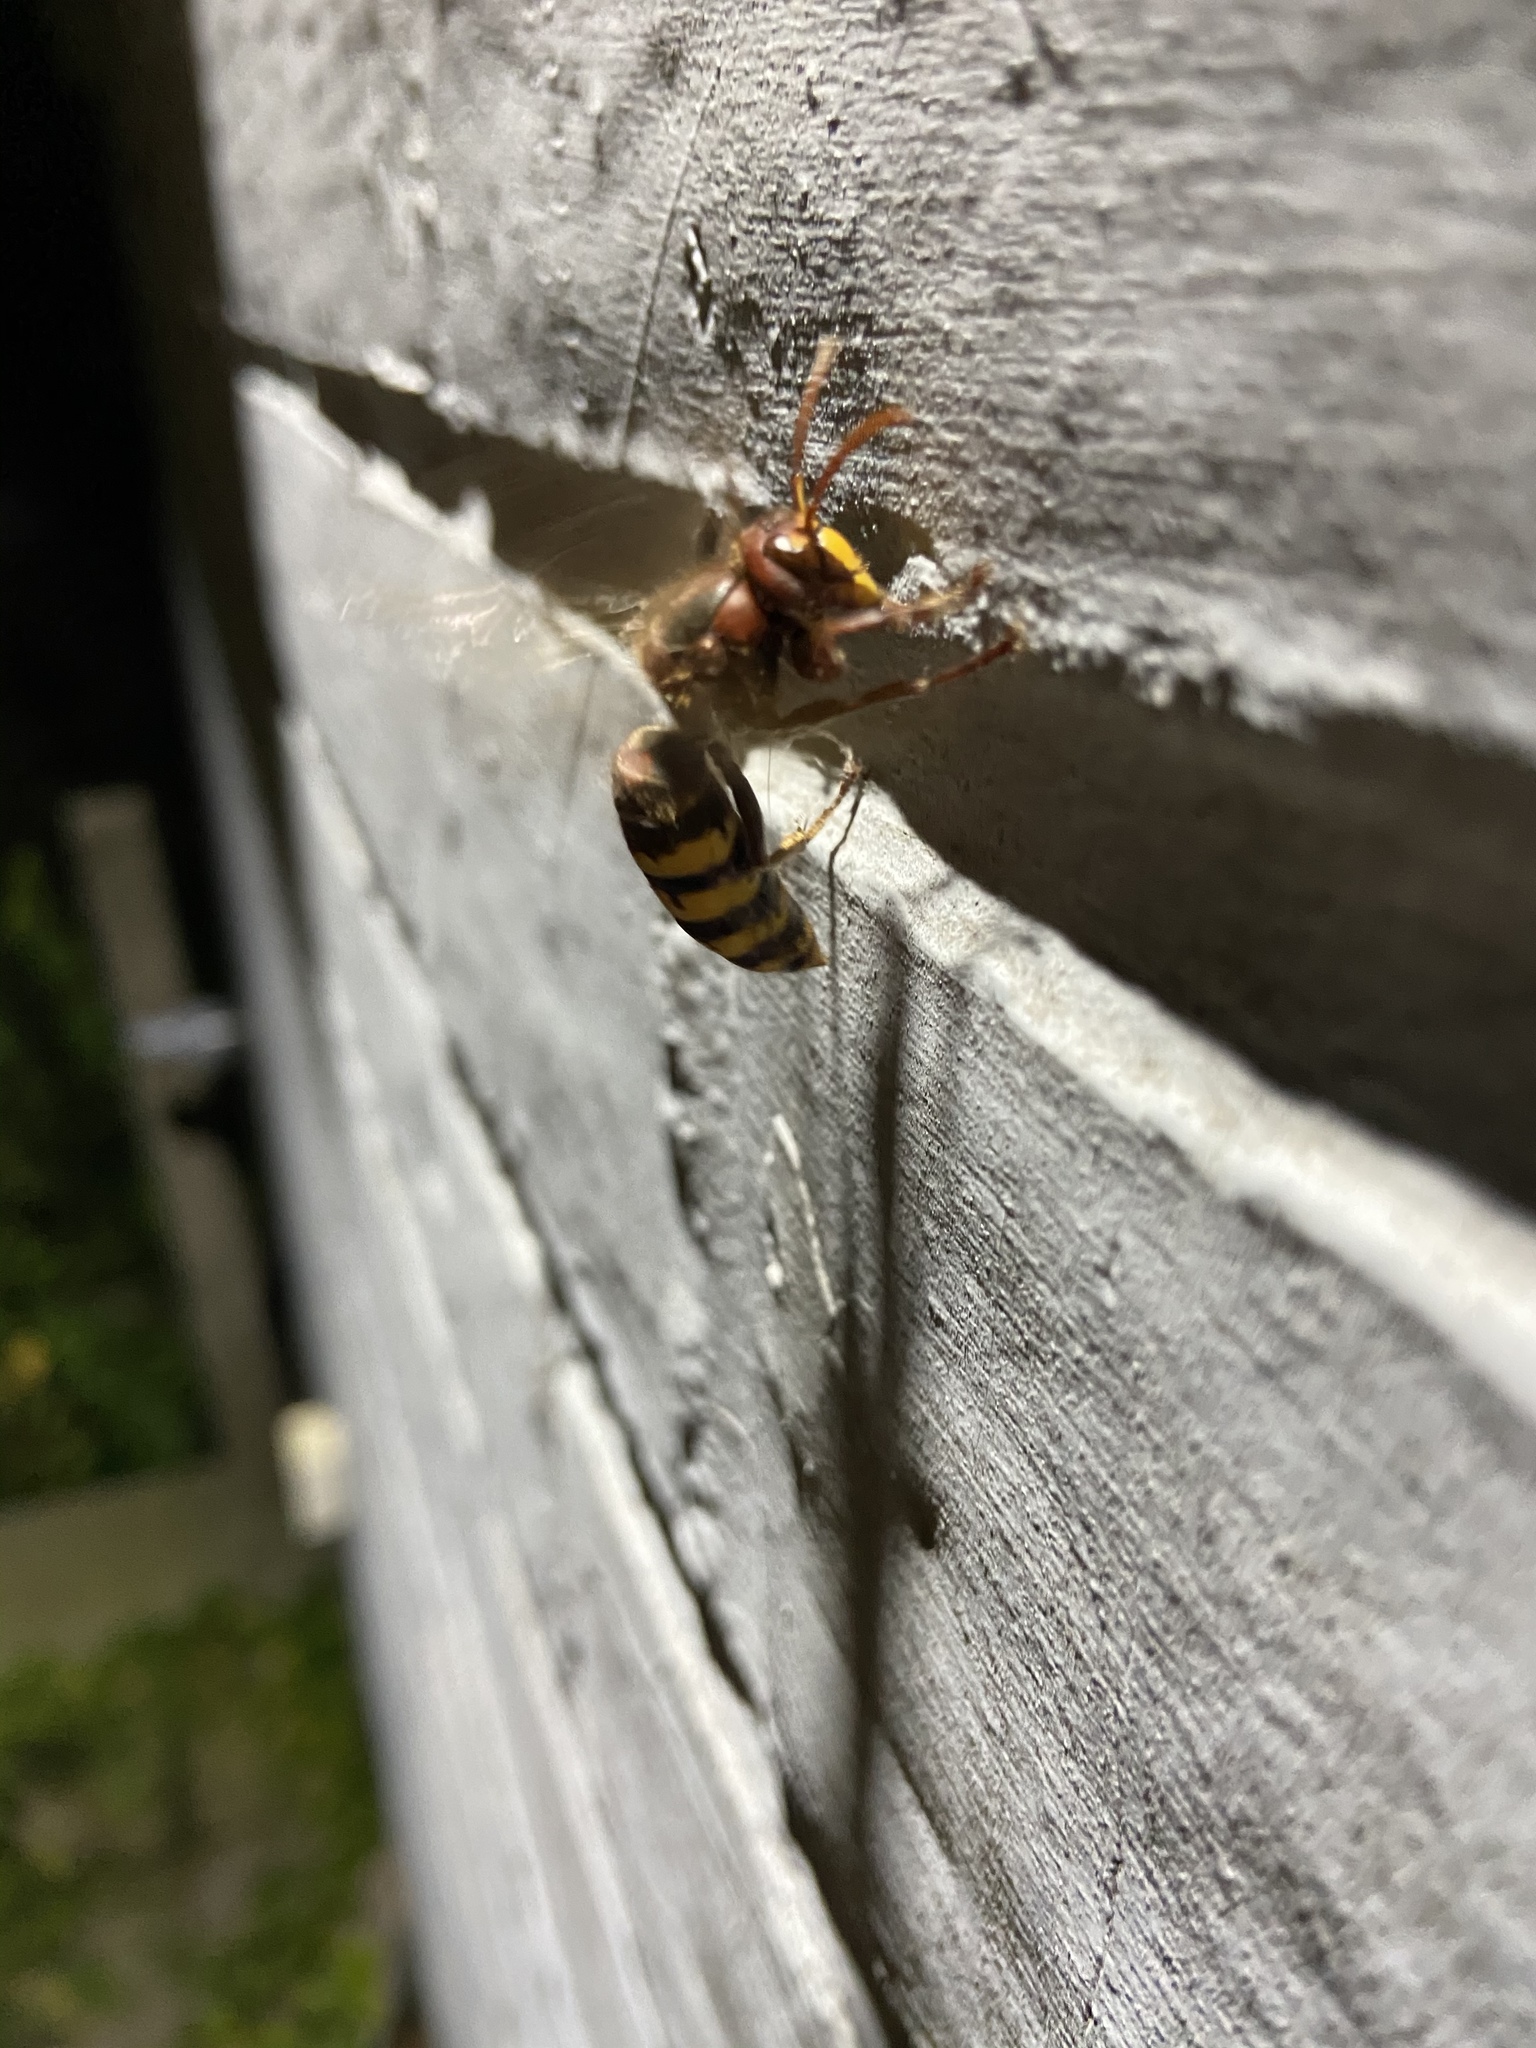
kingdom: Animalia
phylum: Arthropoda
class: Insecta
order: Hymenoptera
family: Vespidae
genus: Vespa
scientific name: Vespa crabro
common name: Hornet
